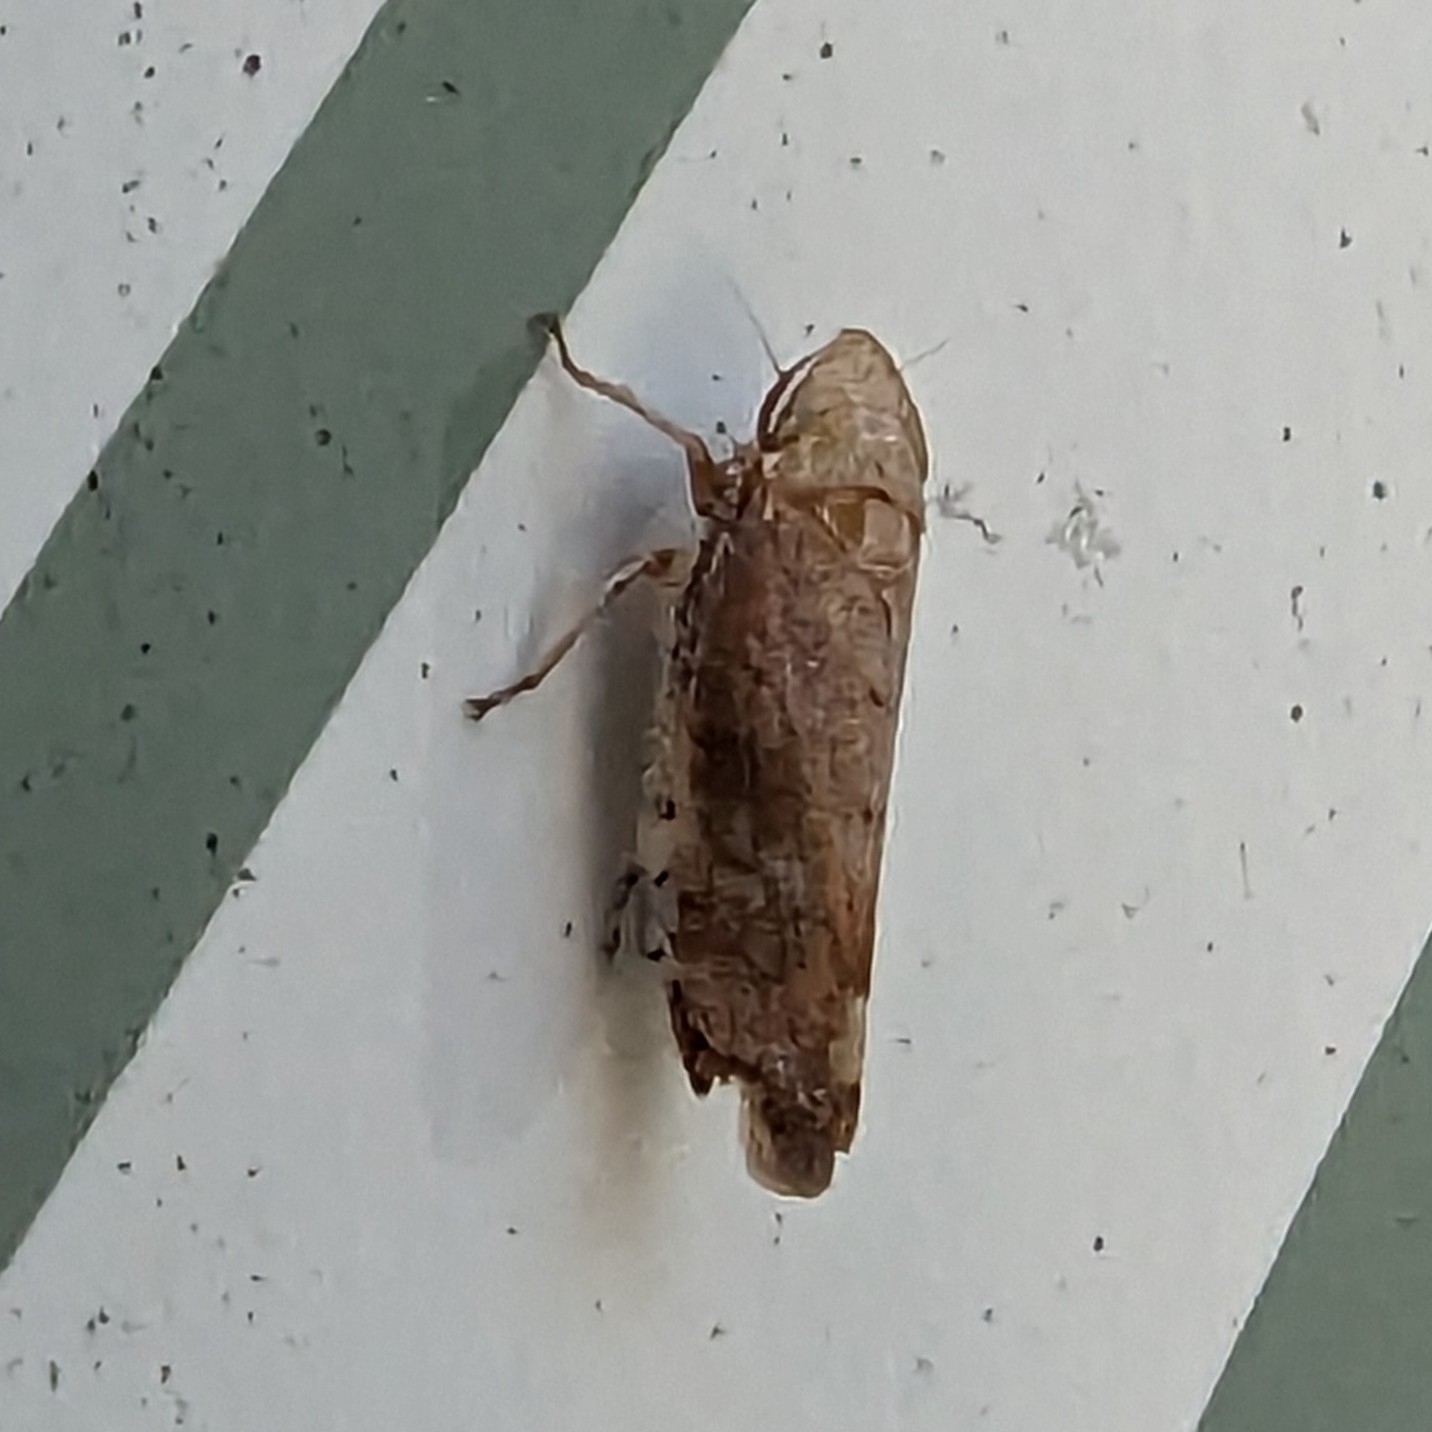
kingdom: Animalia
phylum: Arthropoda
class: Insecta
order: Hemiptera
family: Cicadellidae
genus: Fieberiella
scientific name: Fieberiella florii
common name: Flor’s leafhopper
